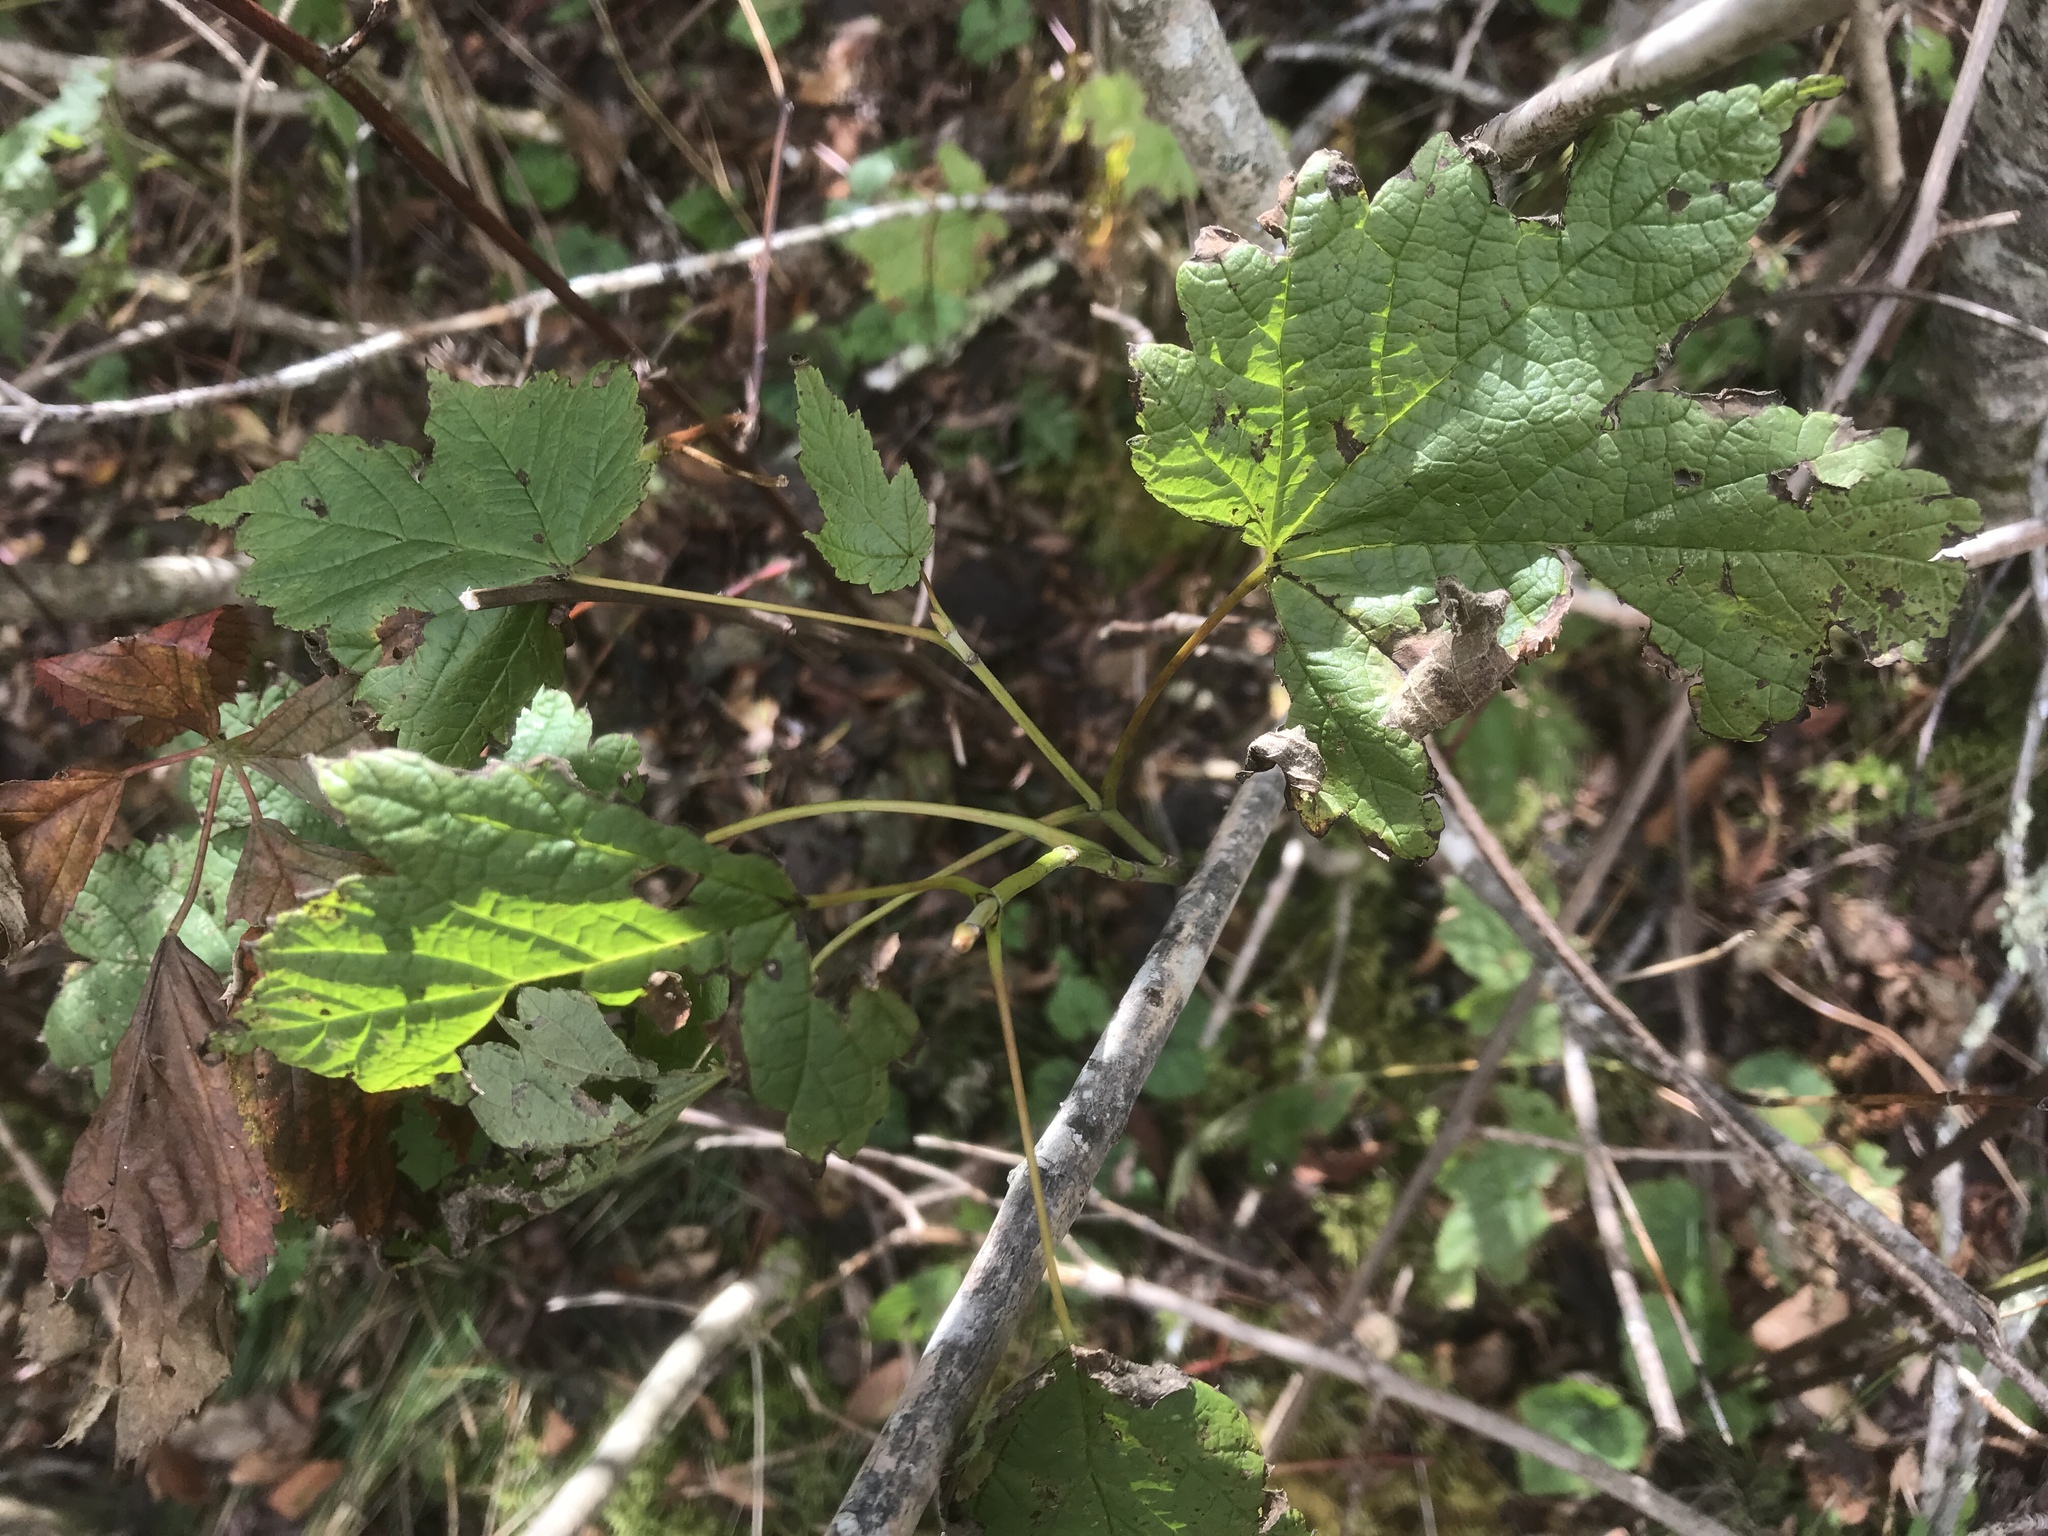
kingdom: Plantae
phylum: Tracheophyta
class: Magnoliopsida
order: Sapindales
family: Sapindaceae
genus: Acer
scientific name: Acer spicatum
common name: Mountain maple
